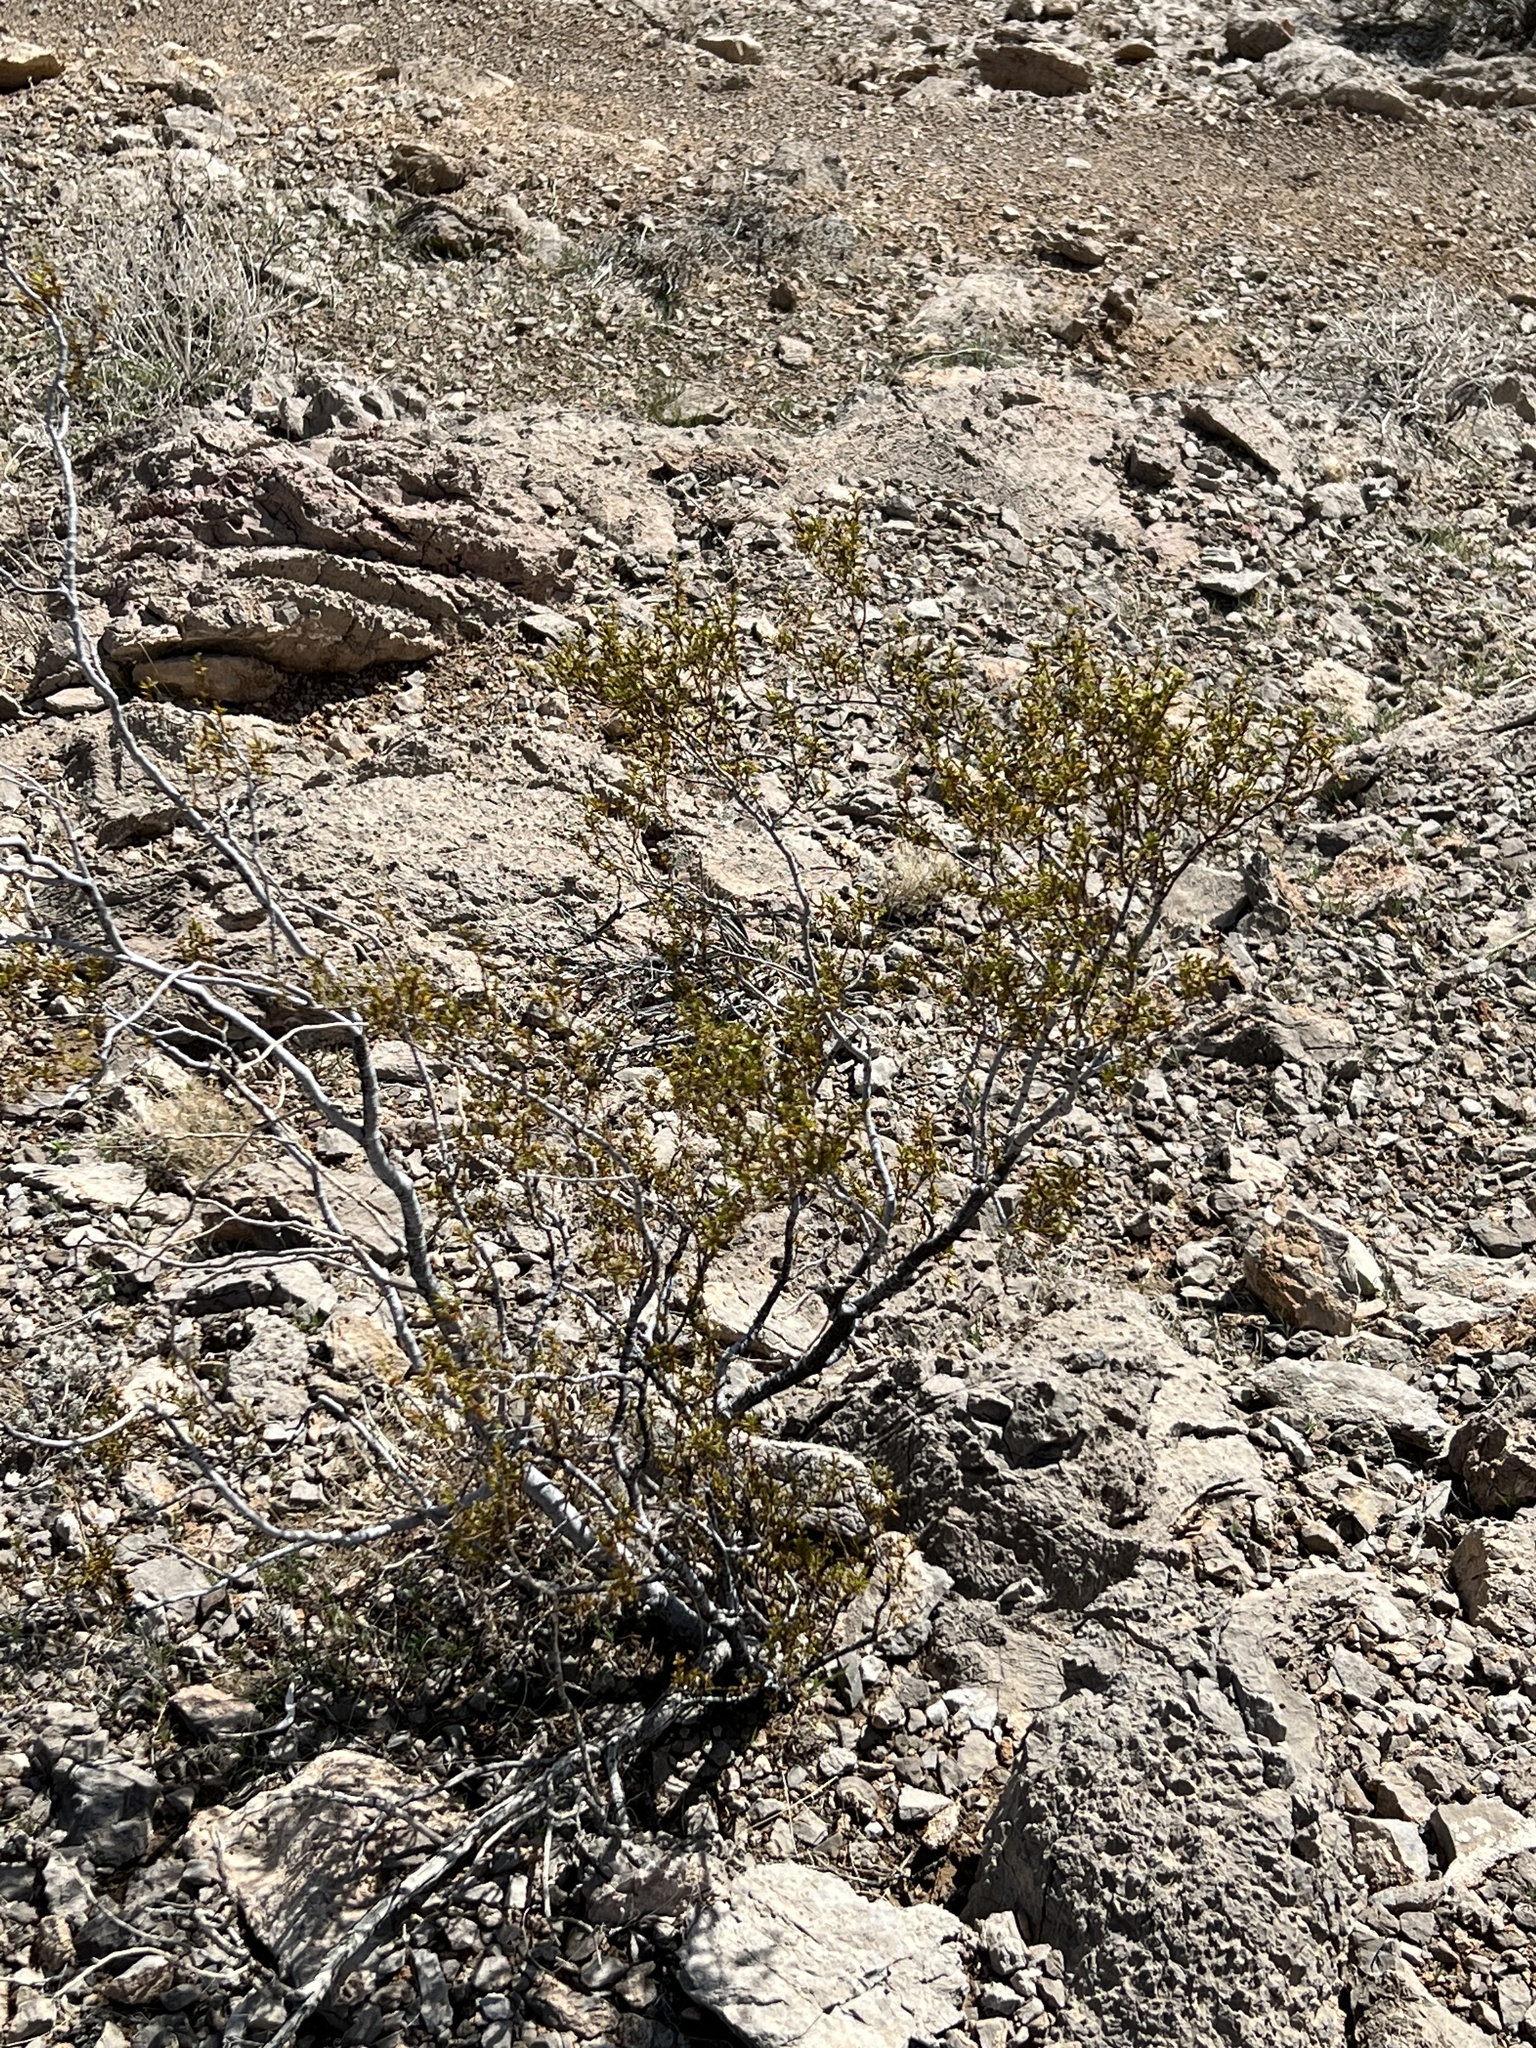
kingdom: Plantae
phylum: Tracheophyta
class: Magnoliopsida
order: Zygophyllales
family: Zygophyllaceae
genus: Larrea
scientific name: Larrea tridentata
